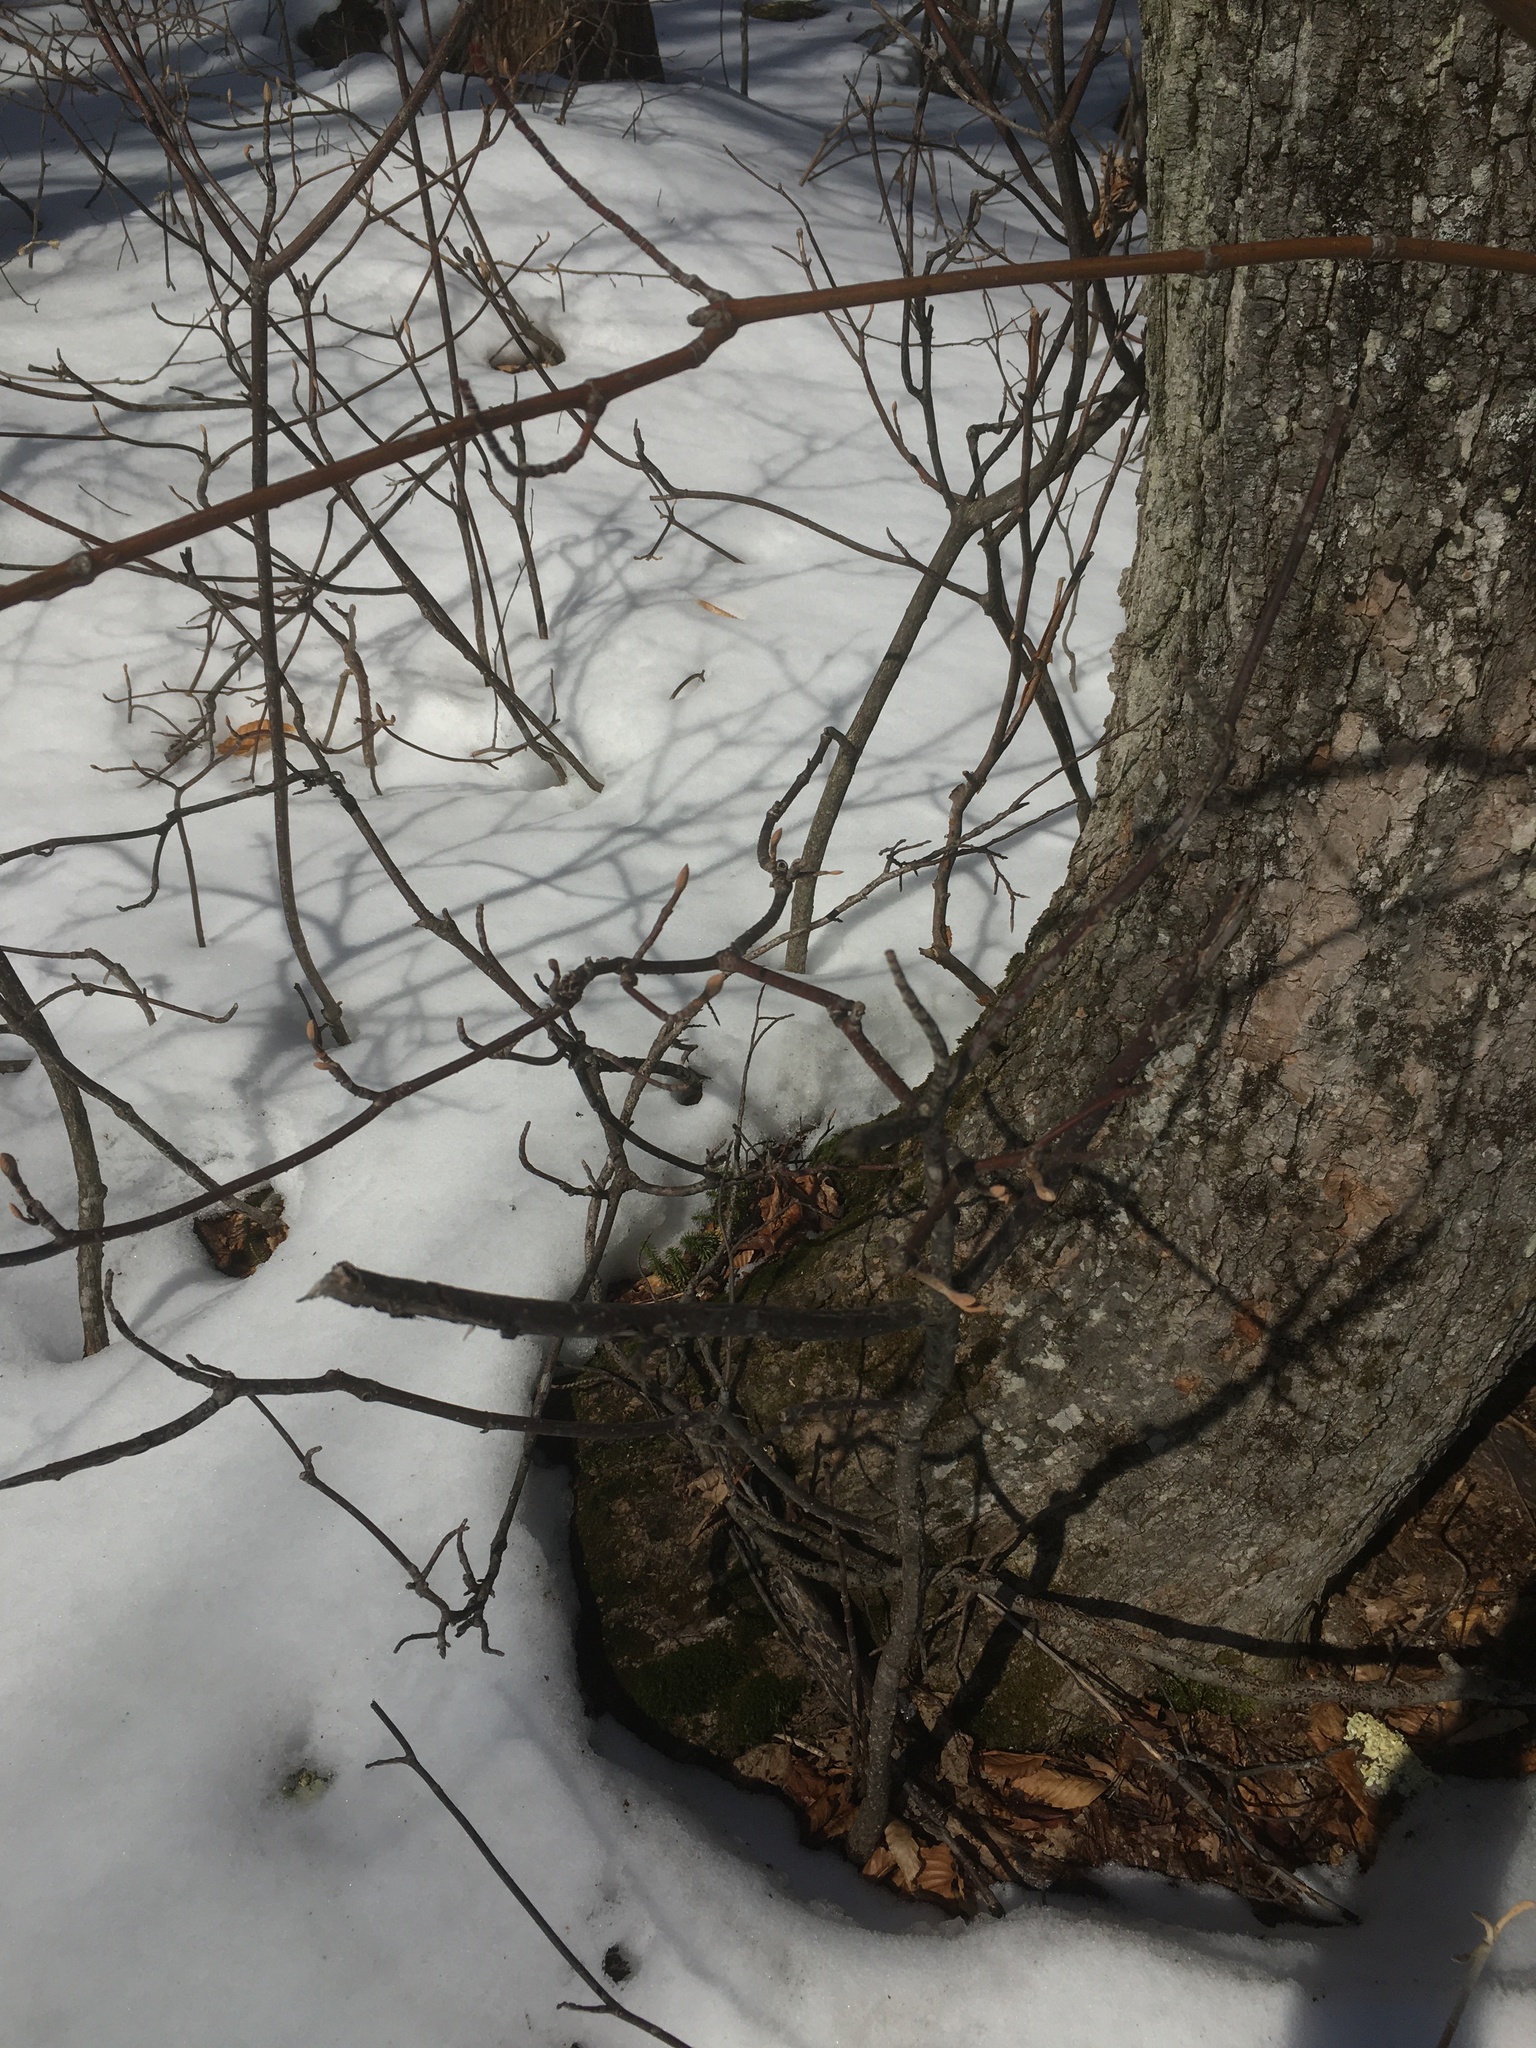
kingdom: Plantae
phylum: Tracheophyta
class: Magnoliopsida
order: Dipsacales
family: Viburnaceae
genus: Viburnum
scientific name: Viburnum lantanoides
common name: Hobblebush
